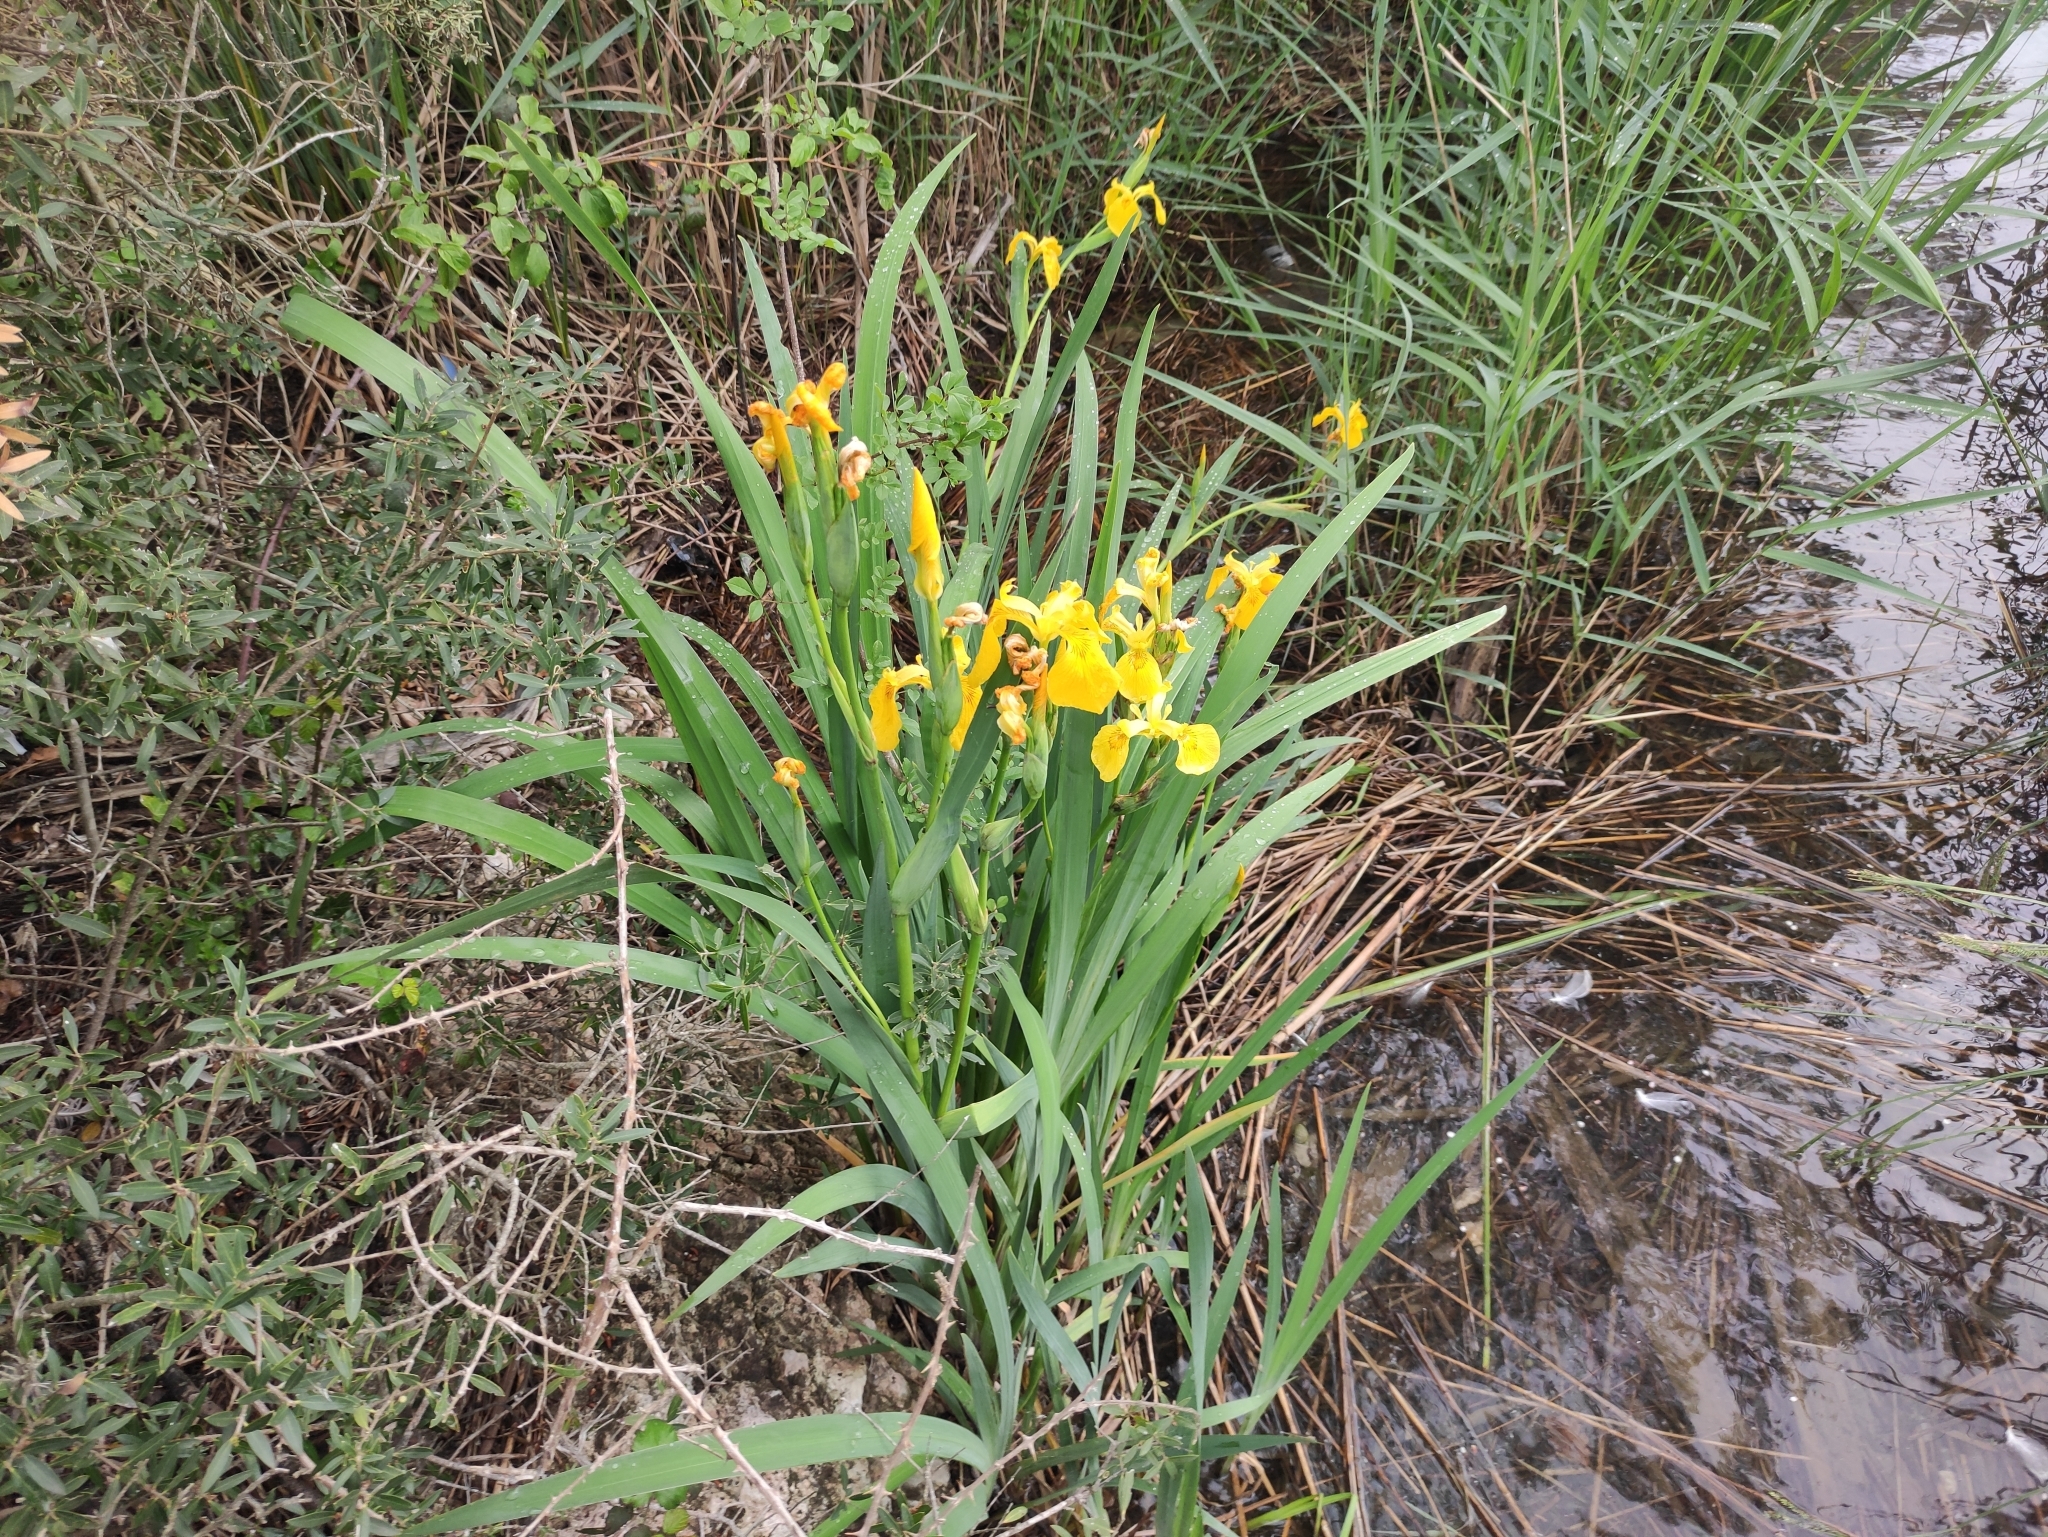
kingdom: Plantae
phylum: Tracheophyta
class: Liliopsida
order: Asparagales
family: Iridaceae
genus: Iris
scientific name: Iris pseudacorus
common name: Yellow flag
